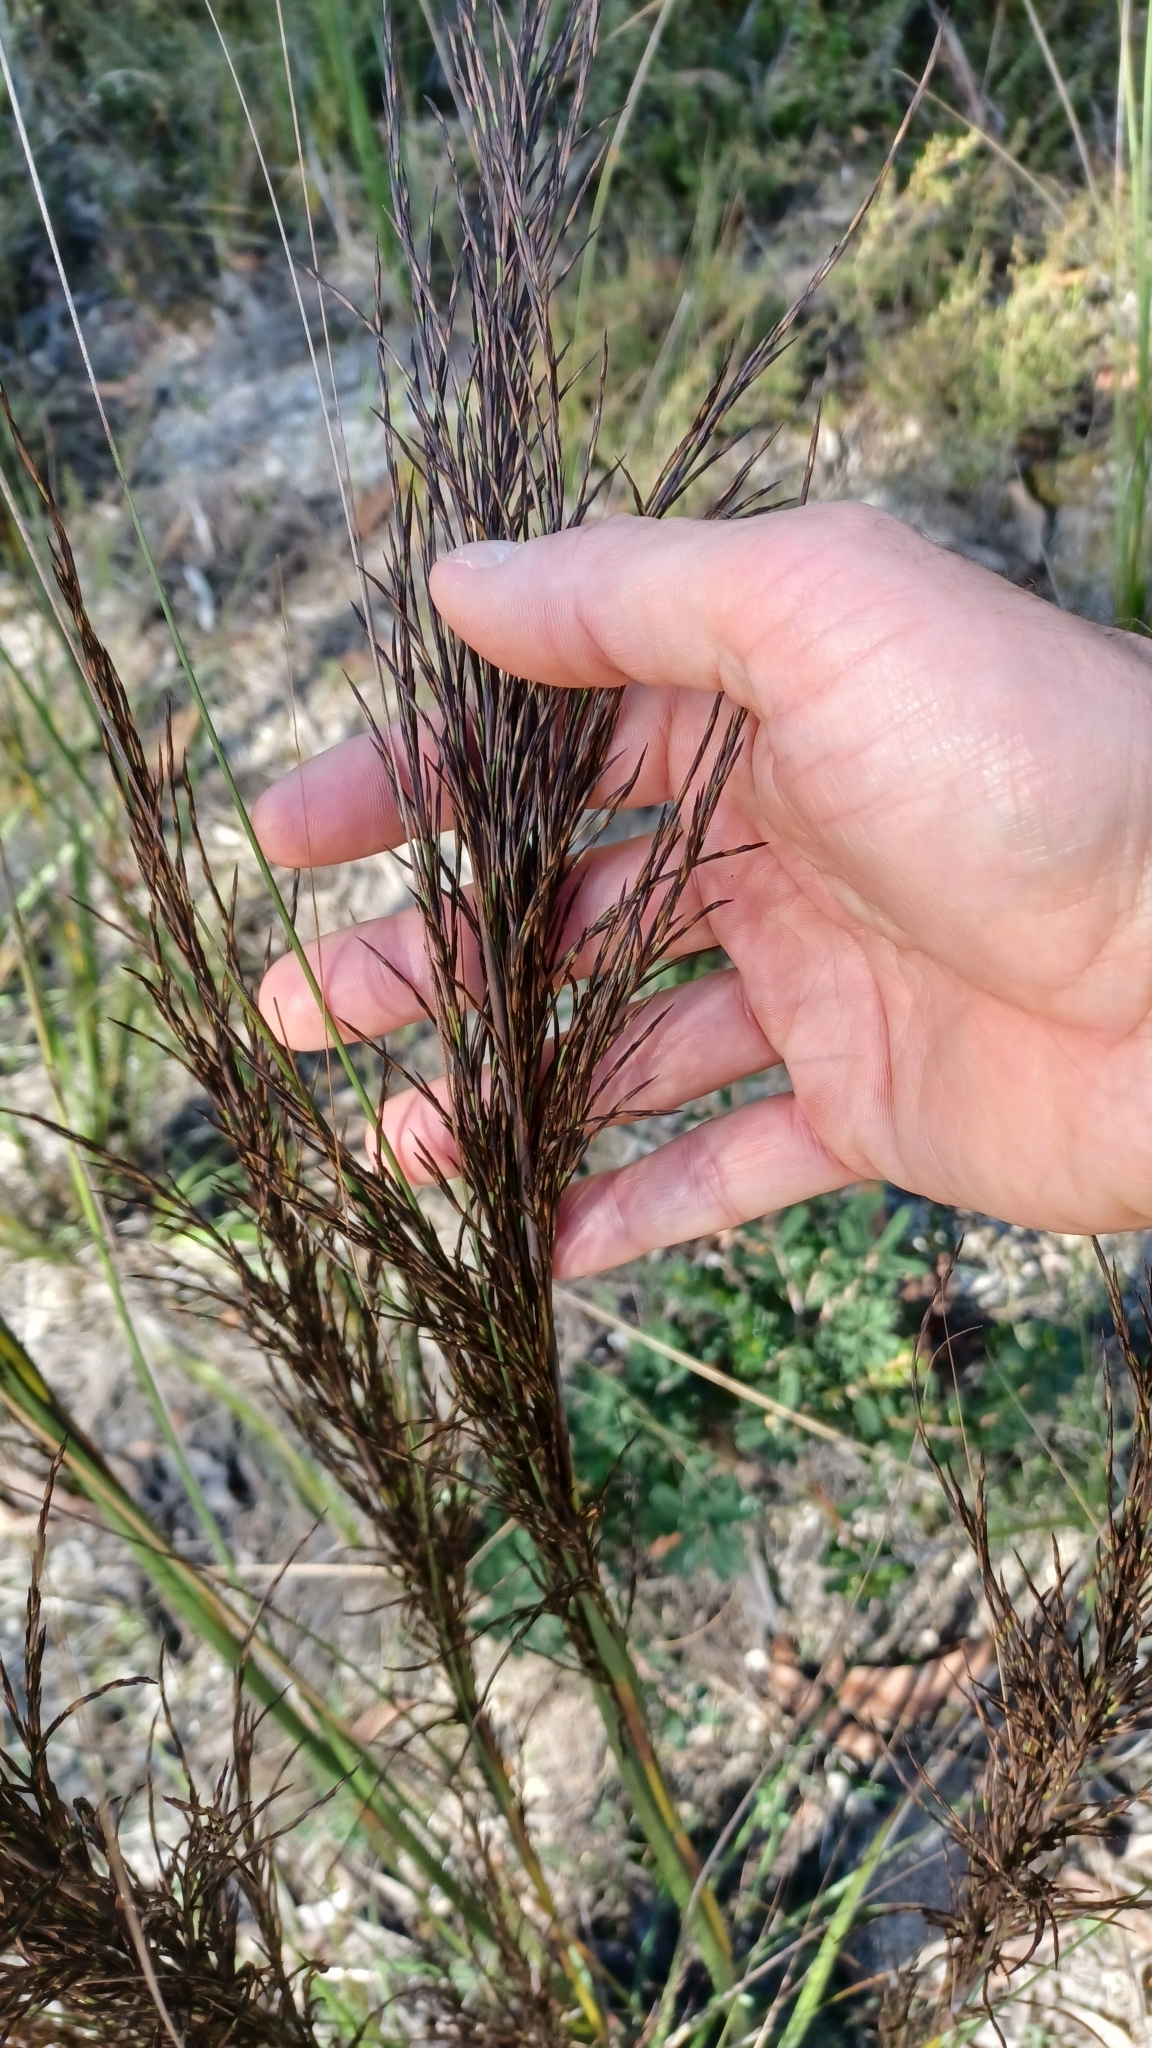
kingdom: Plantae
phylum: Tracheophyta
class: Liliopsida
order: Poales
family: Cyperaceae
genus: Gahnia
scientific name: Gahnia radula
